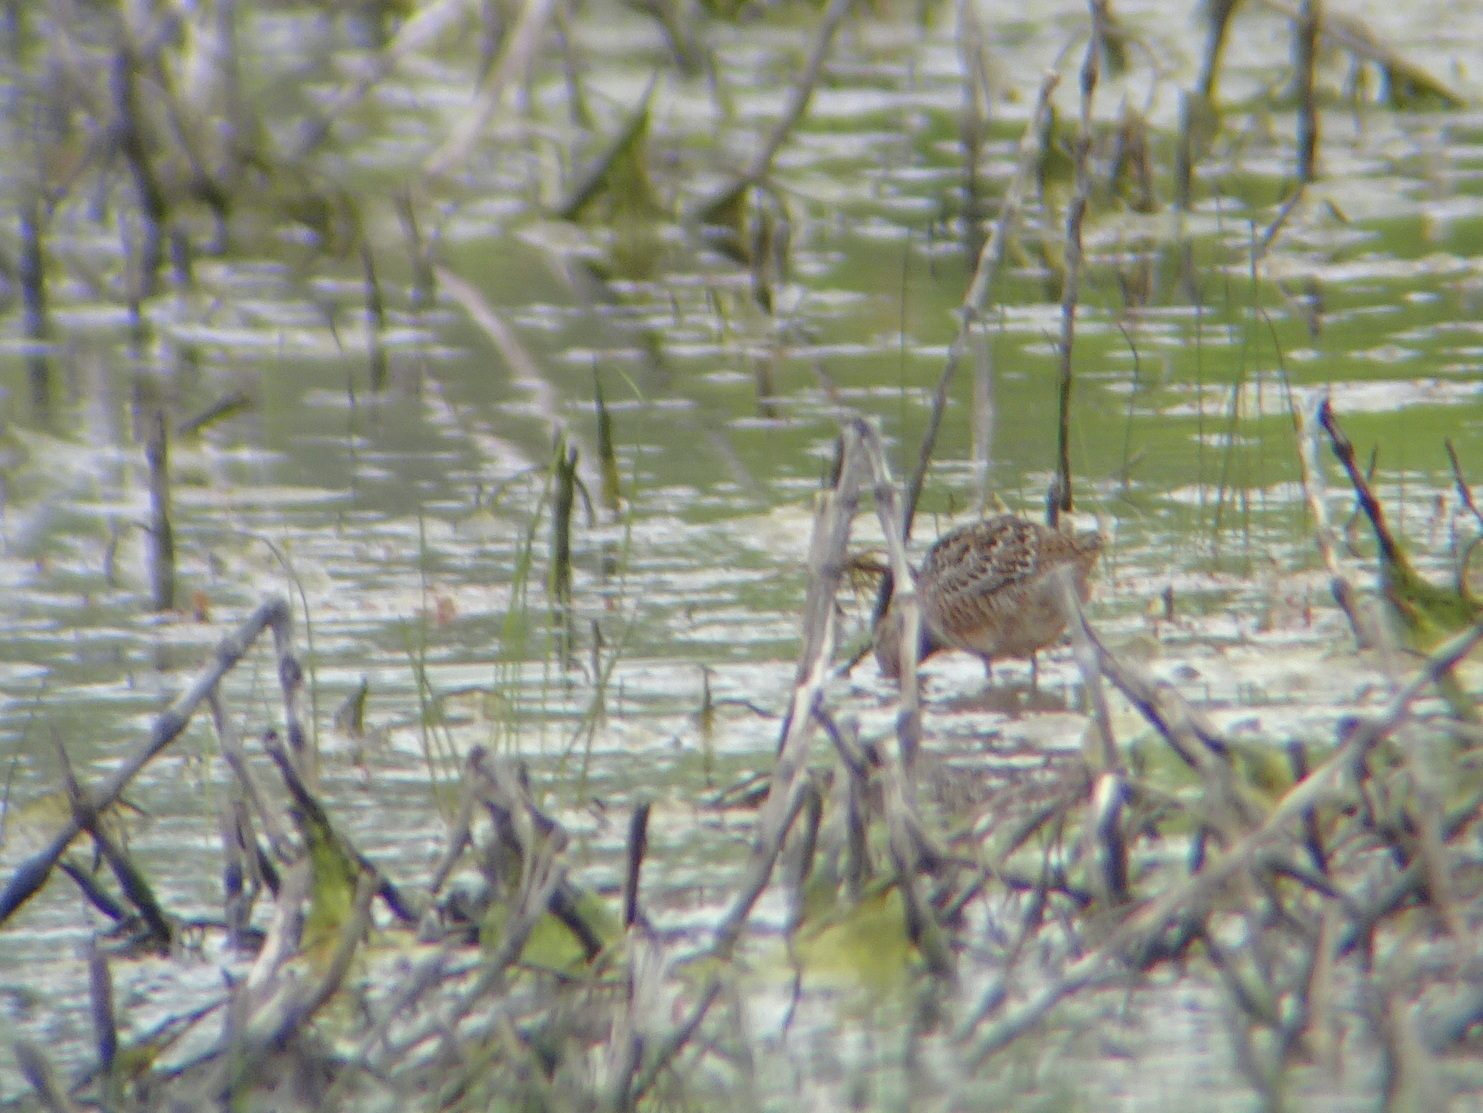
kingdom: Animalia
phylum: Chordata
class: Aves
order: Charadriiformes
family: Scolopacidae
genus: Limnodromus
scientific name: Limnodromus scolopaceus
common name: Long-billed dowitcher
